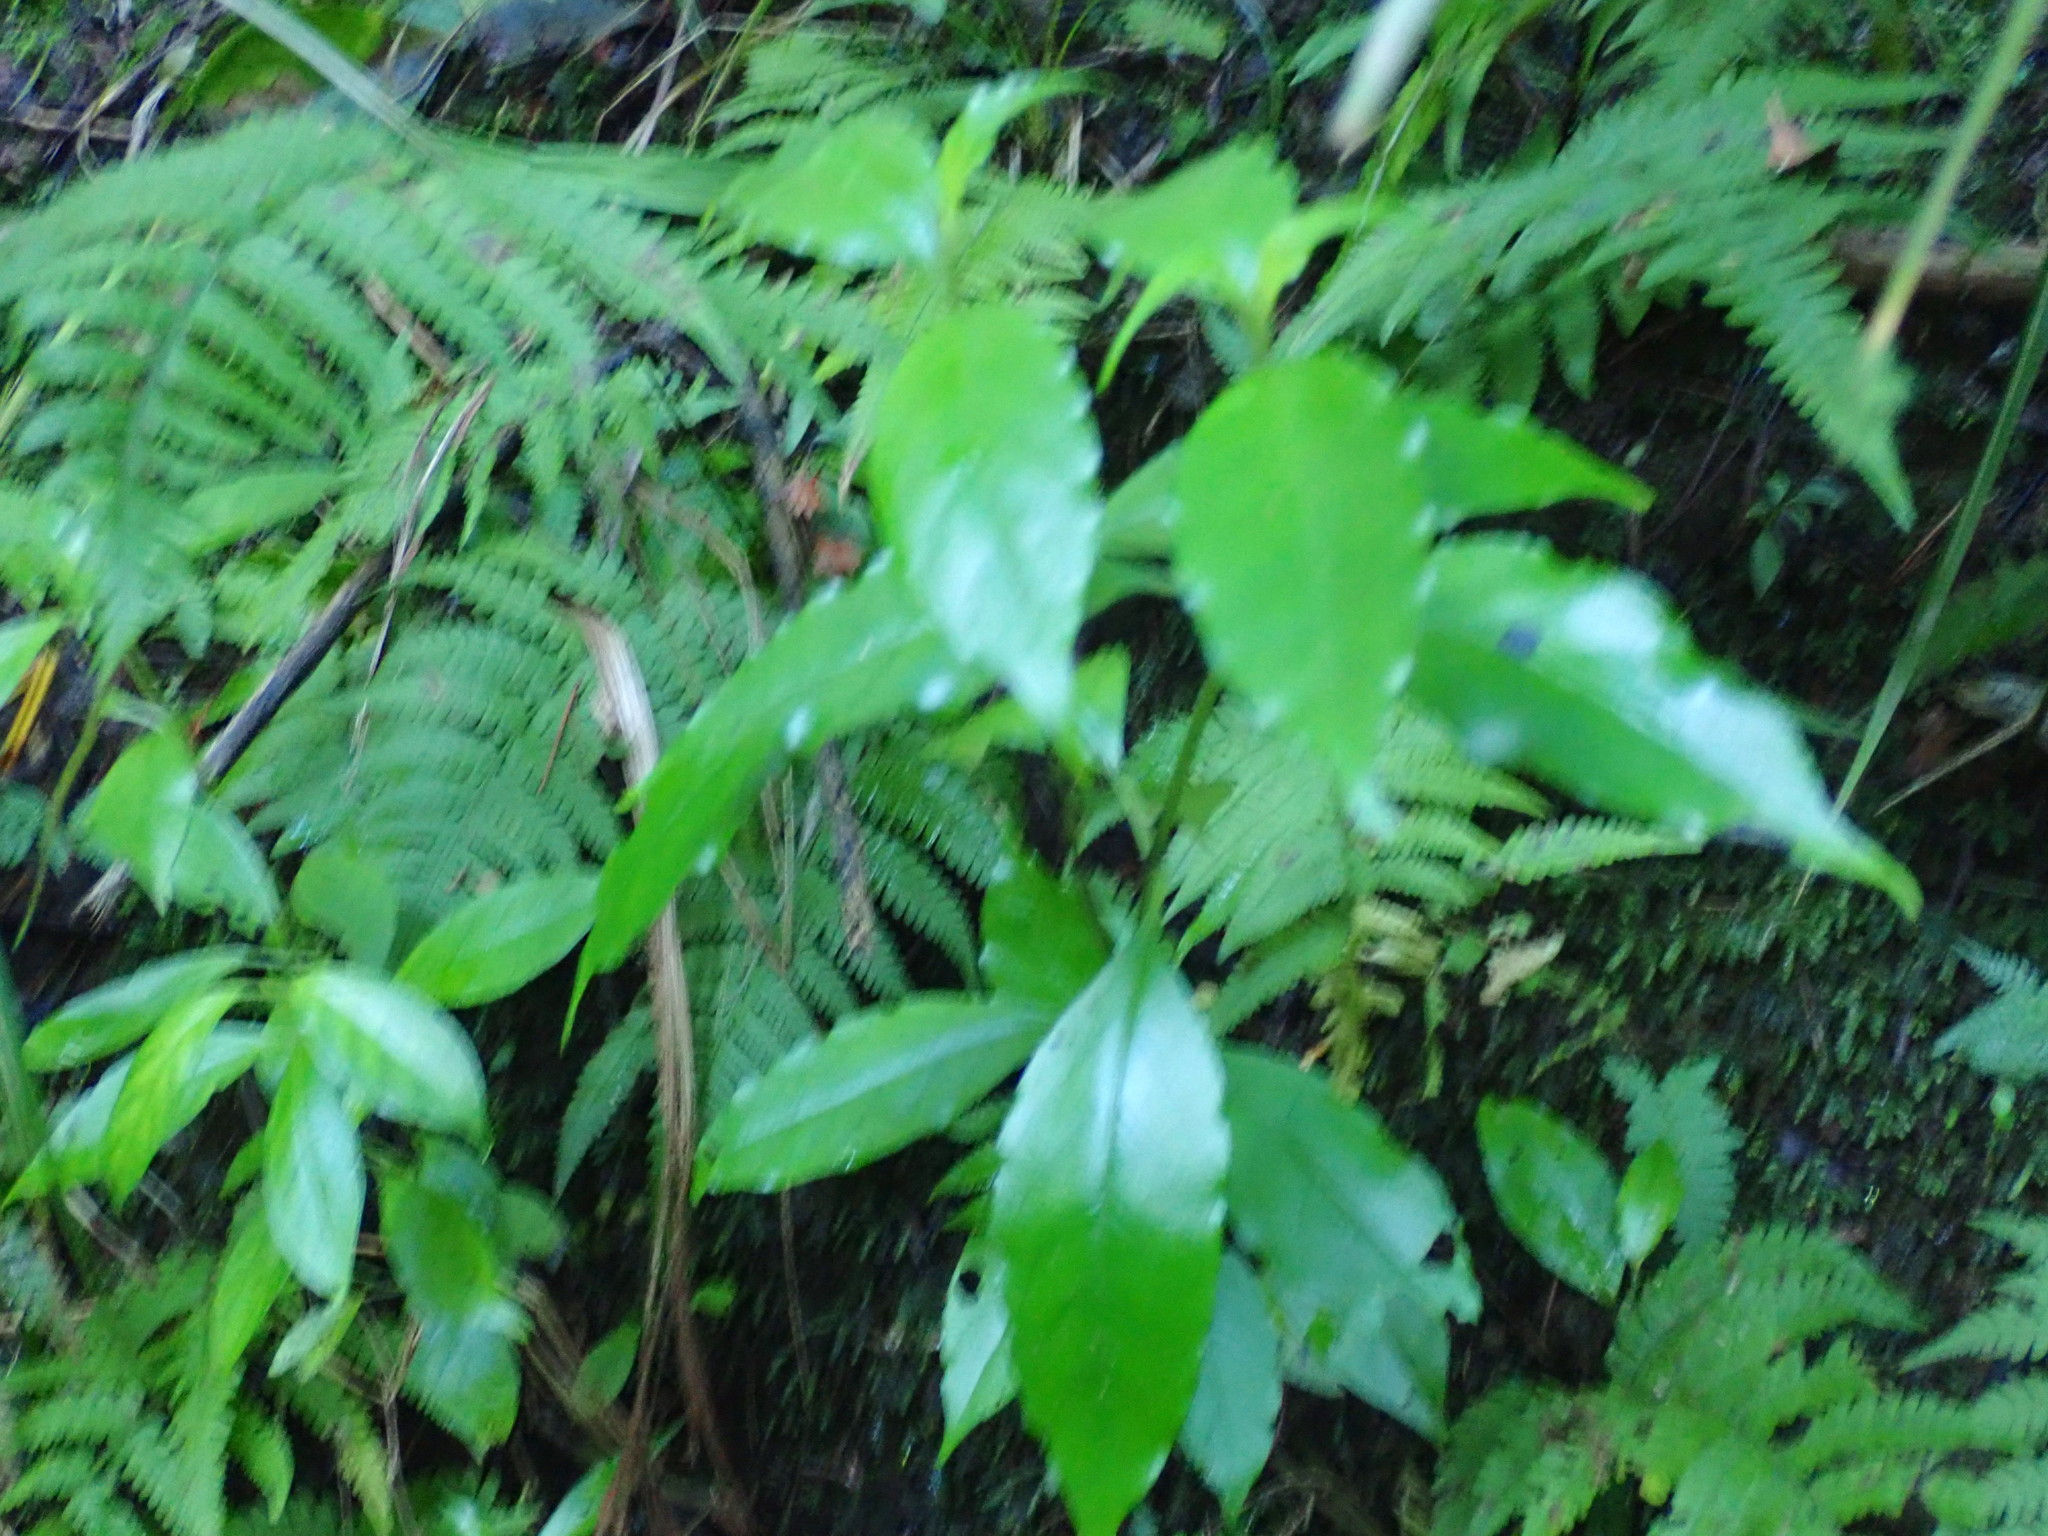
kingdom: Plantae
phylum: Tracheophyta
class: Magnoliopsida
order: Gentianales
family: Loganiaceae
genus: Geniostoma
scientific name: Geniostoma ligustrifolium
